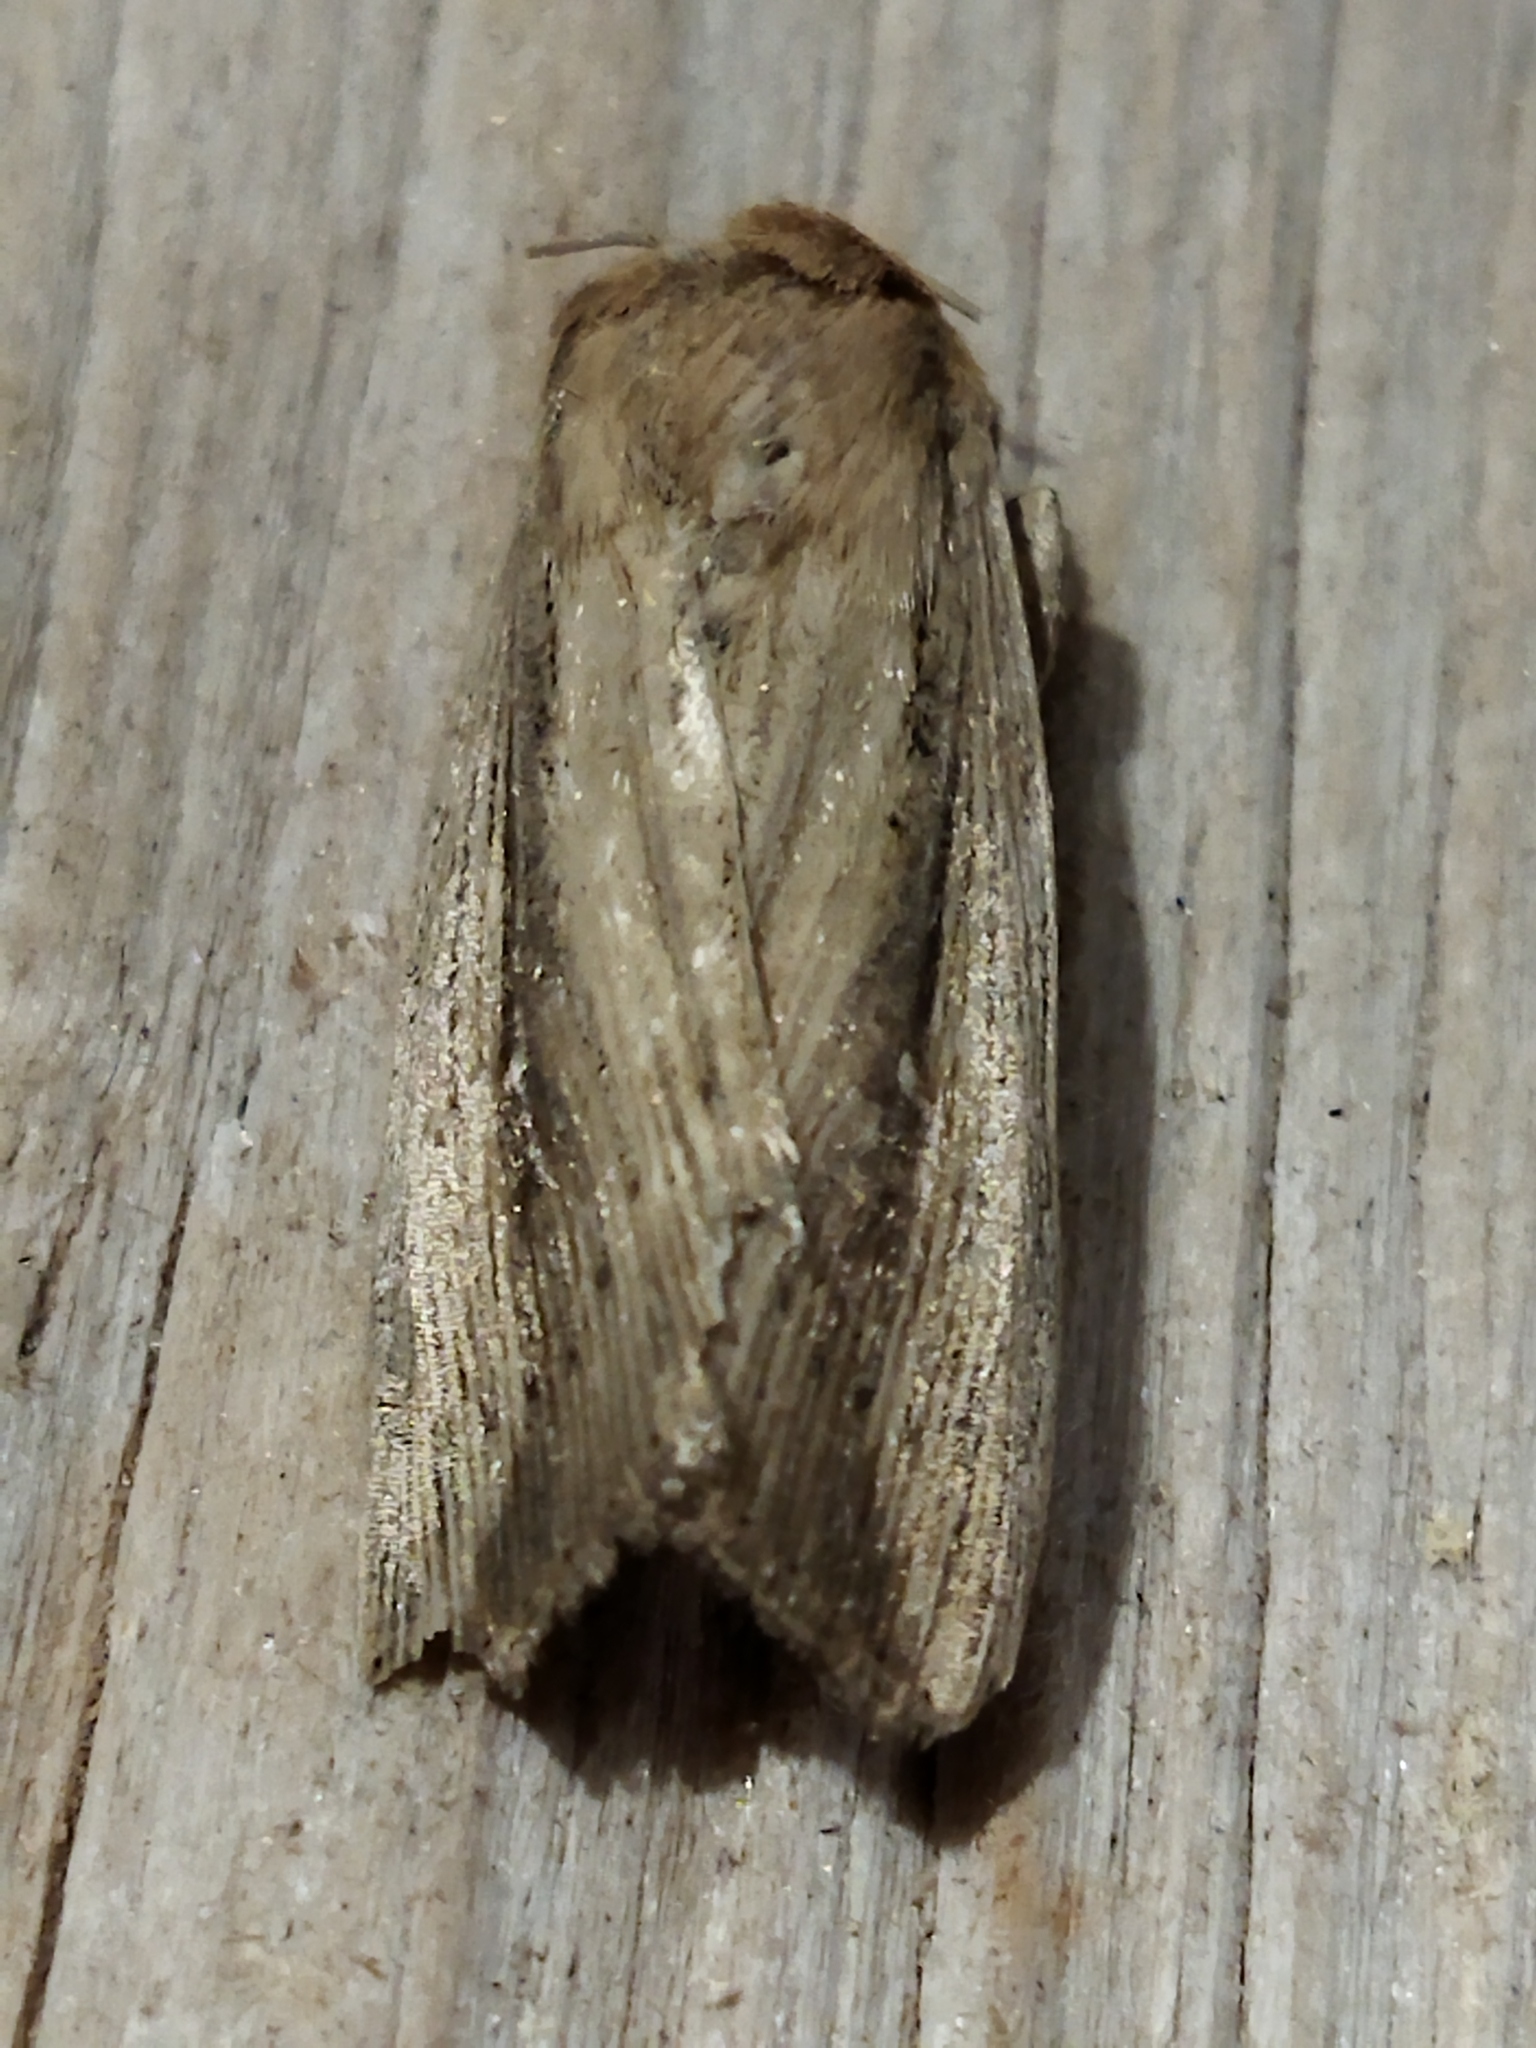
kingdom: Animalia
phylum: Arthropoda
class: Insecta
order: Lepidoptera
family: Noctuidae
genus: Leucania
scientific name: Leucania loreyi
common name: The cosmopolitan
